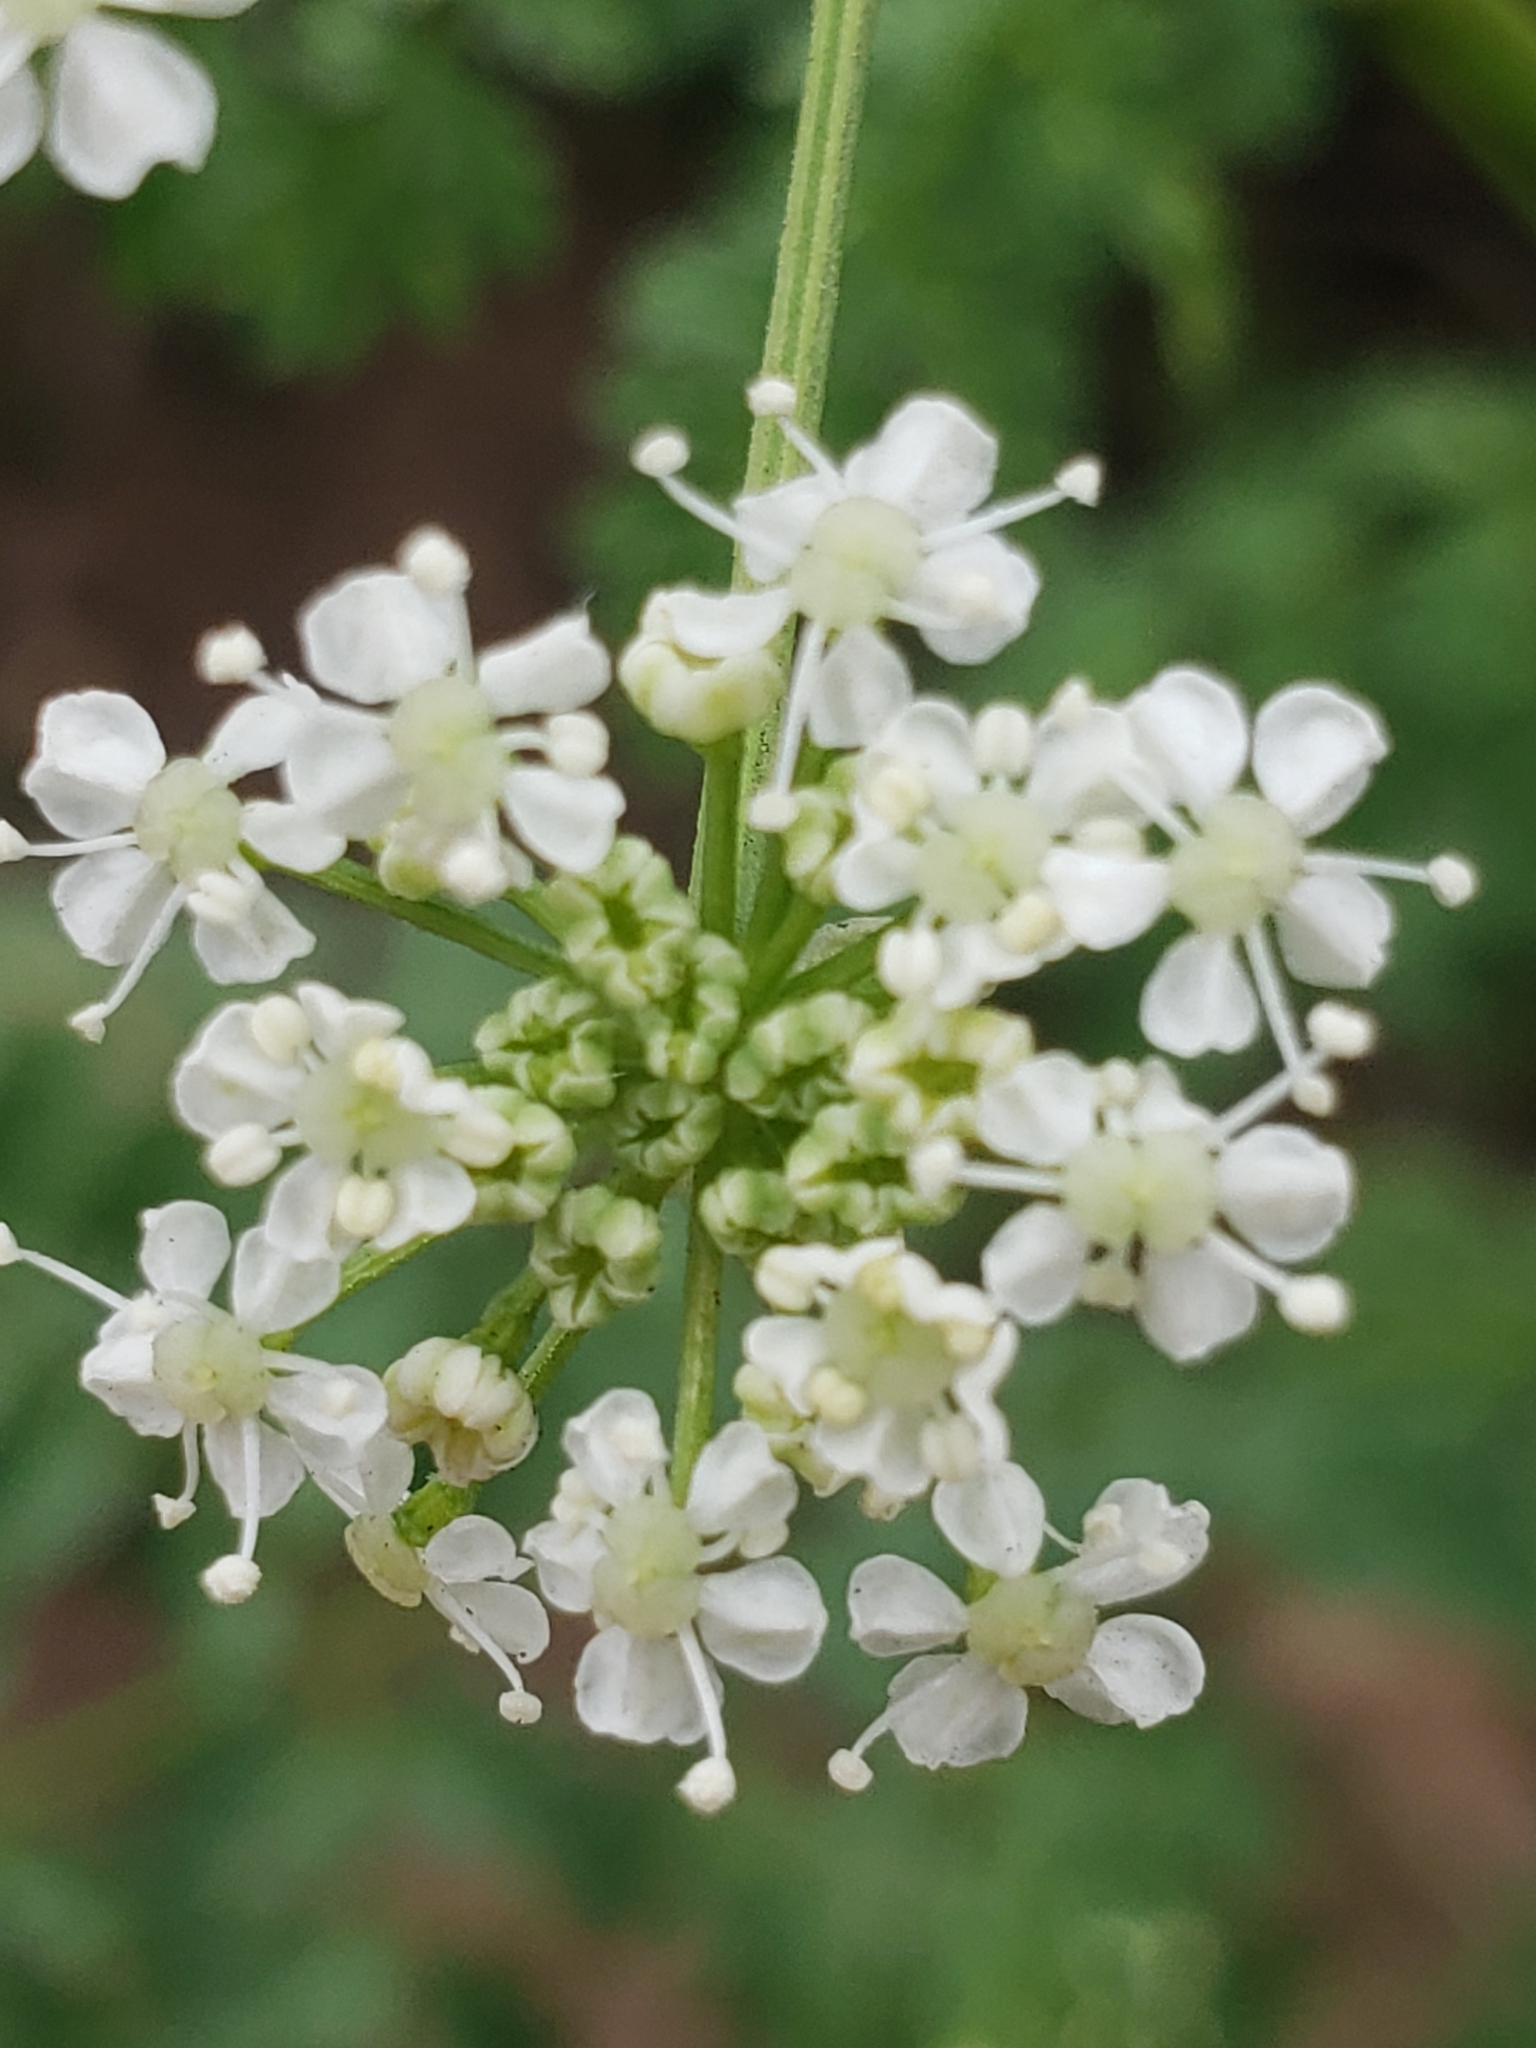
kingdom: Plantae
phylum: Tracheophyta
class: Magnoliopsida
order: Apiales
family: Apiaceae
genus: Conium
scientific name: Conium maculatum
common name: Hemlock
